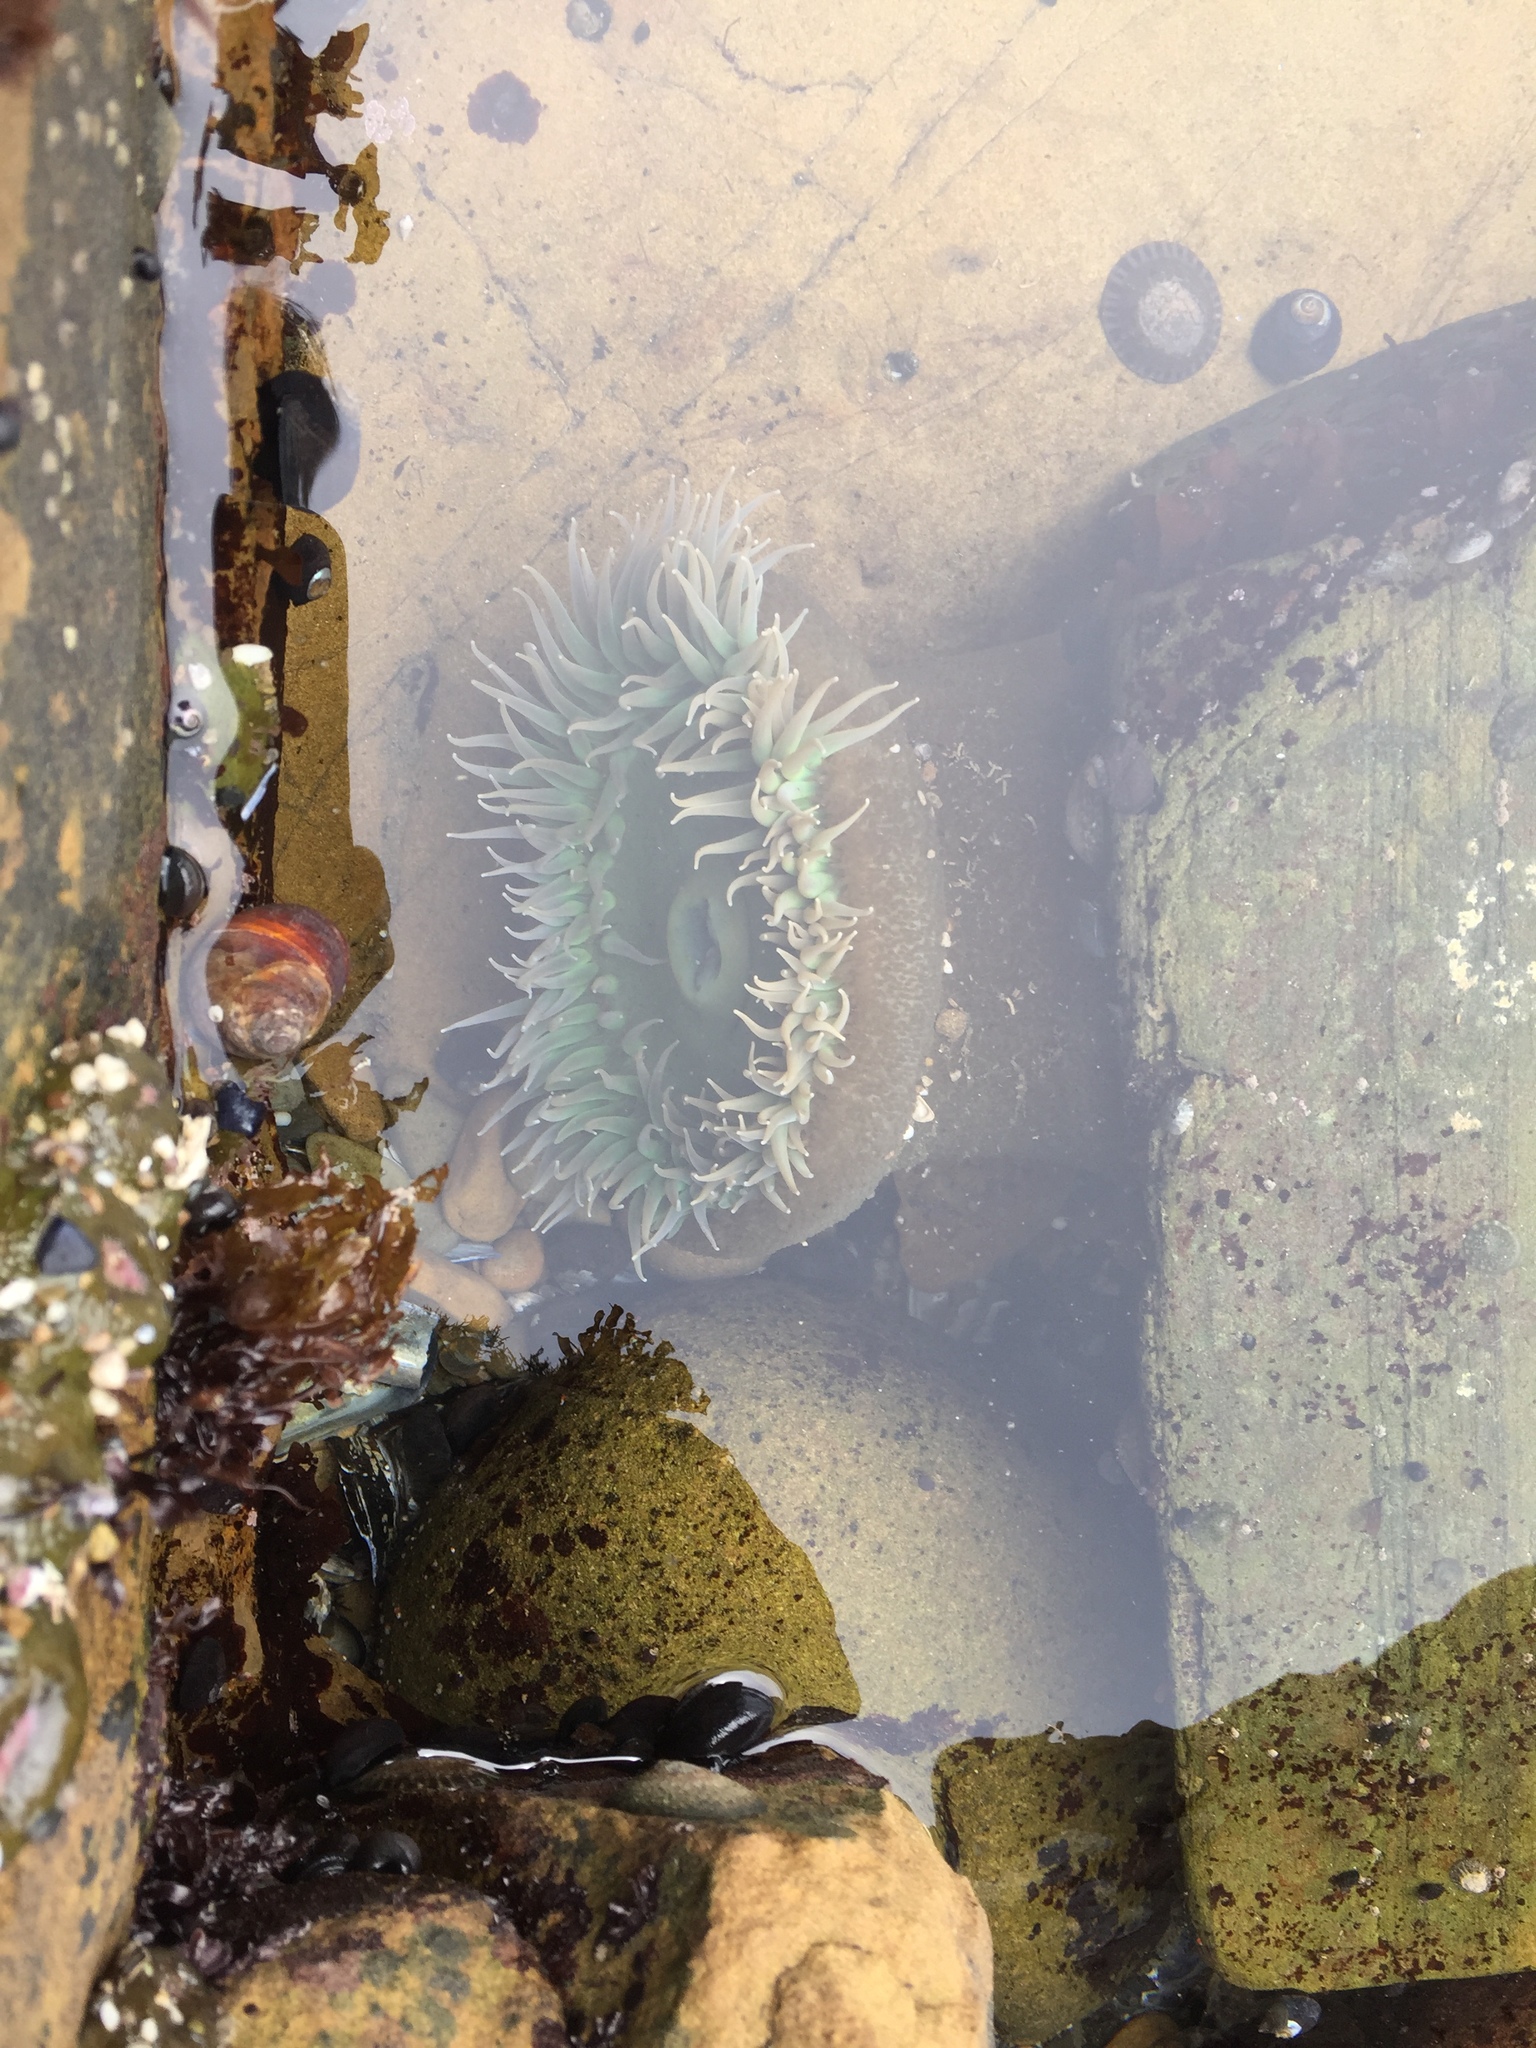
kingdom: Animalia
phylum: Cnidaria
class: Anthozoa
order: Actiniaria
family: Actiniidae
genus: Anthopleura
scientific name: Anthopleura xanthogrammica
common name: Giant green anemone
